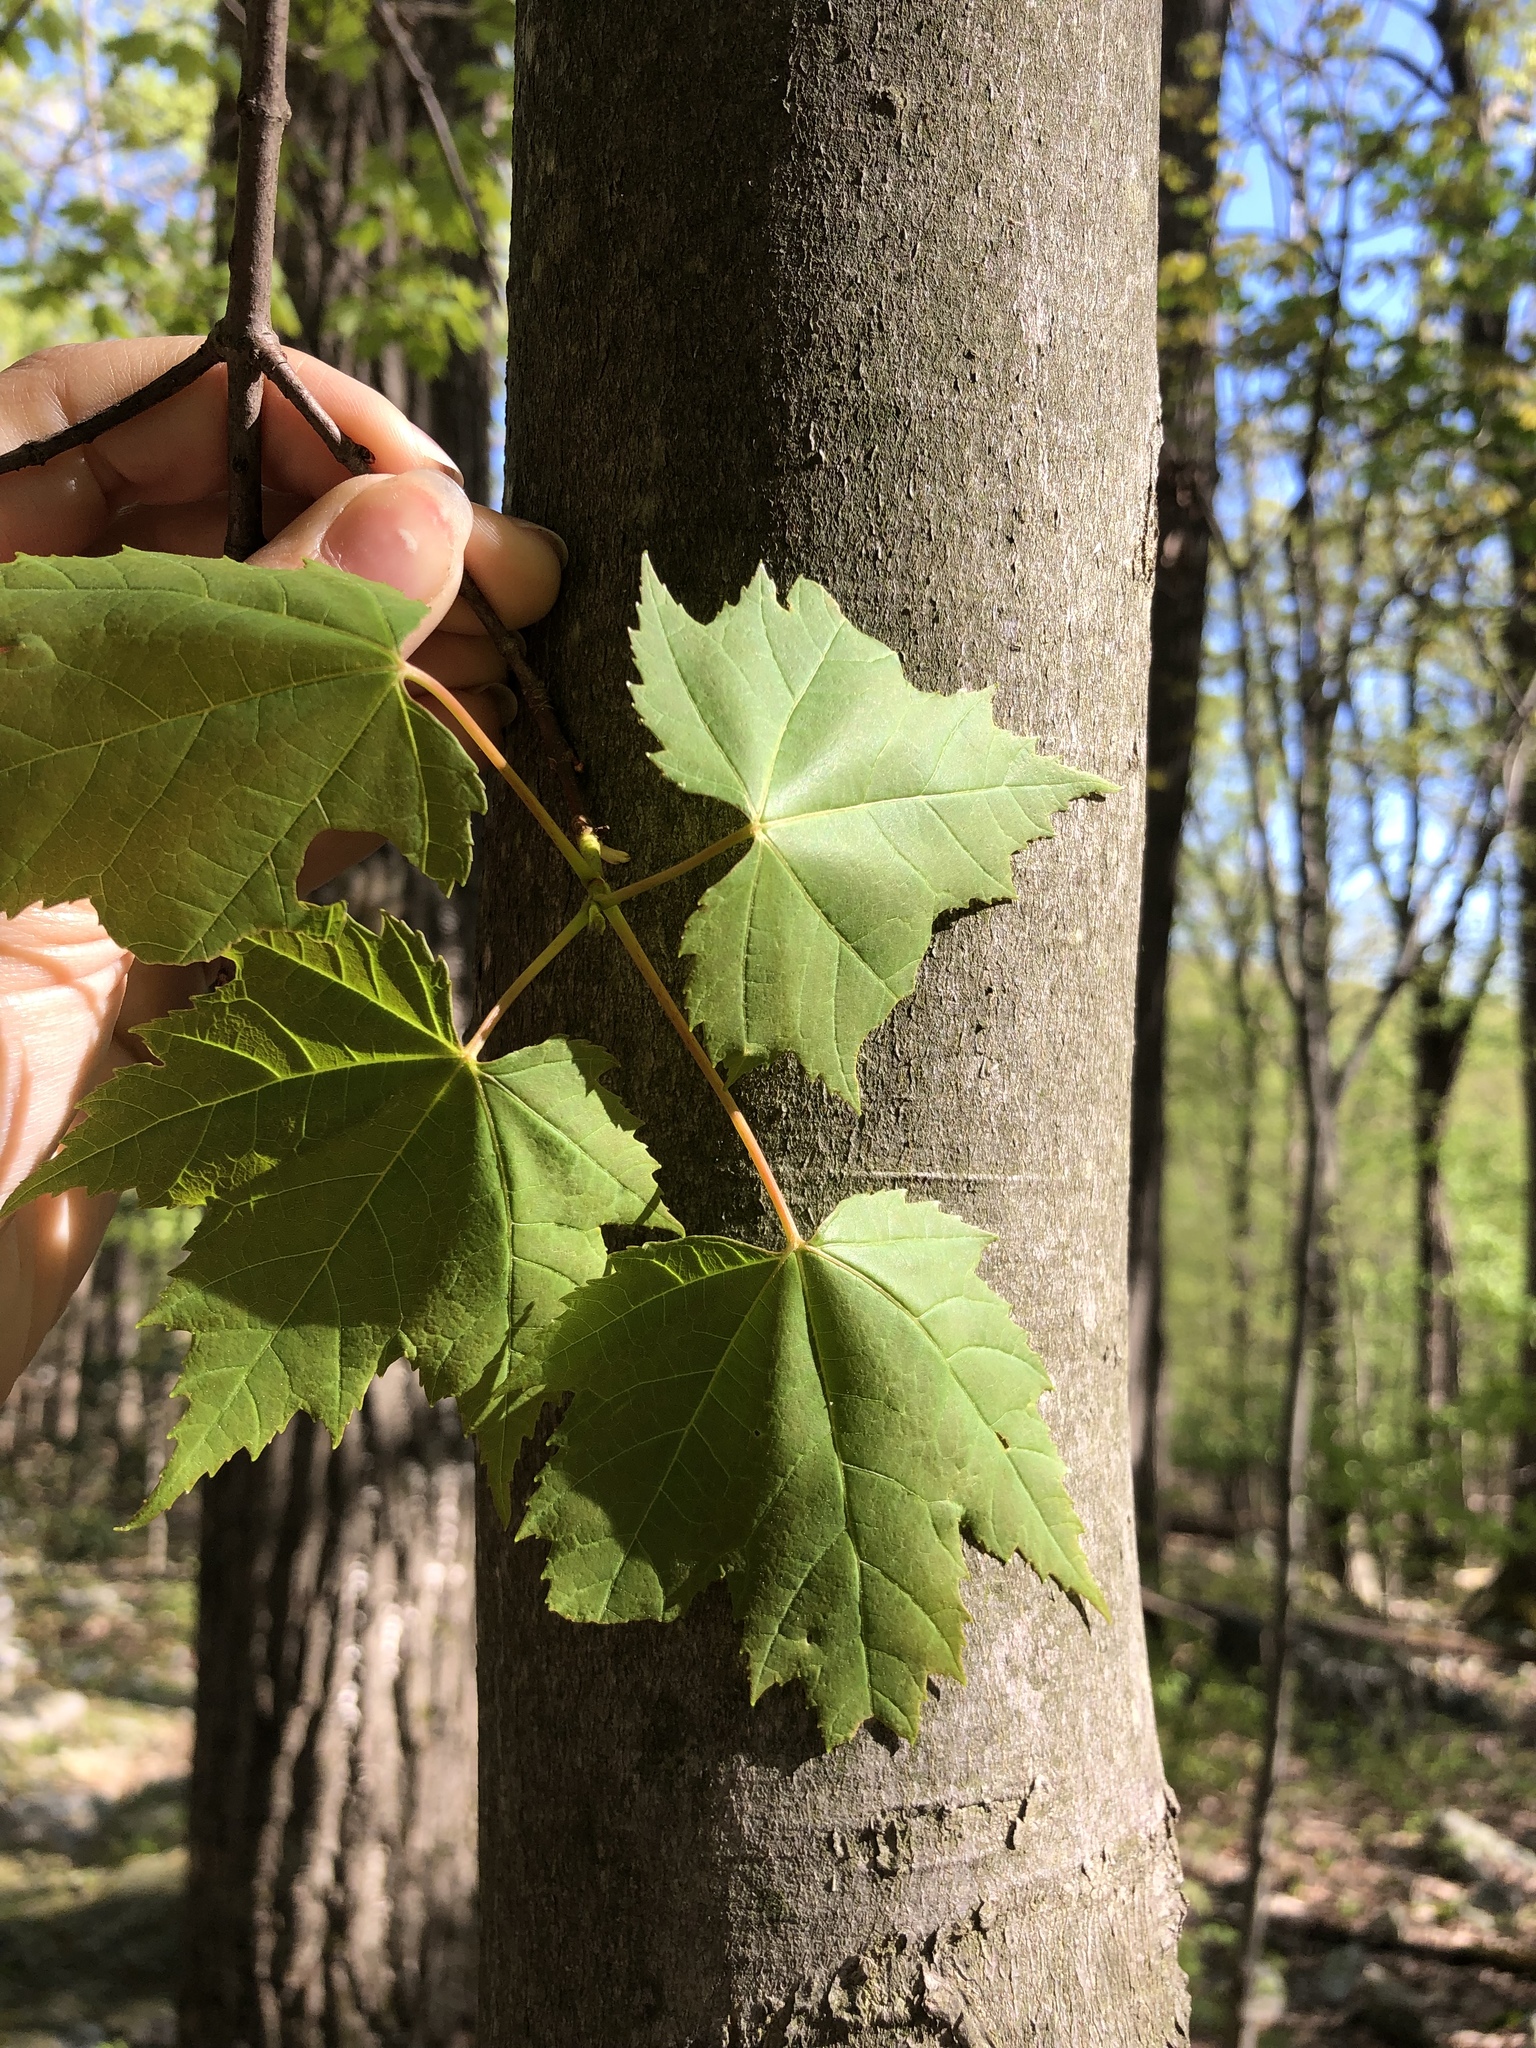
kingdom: Plantae
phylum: Tracheophyta
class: Magnoliopsida
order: Sapindales
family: Sapindaceae
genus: Acer
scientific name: Acer rubrum
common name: Red maple
